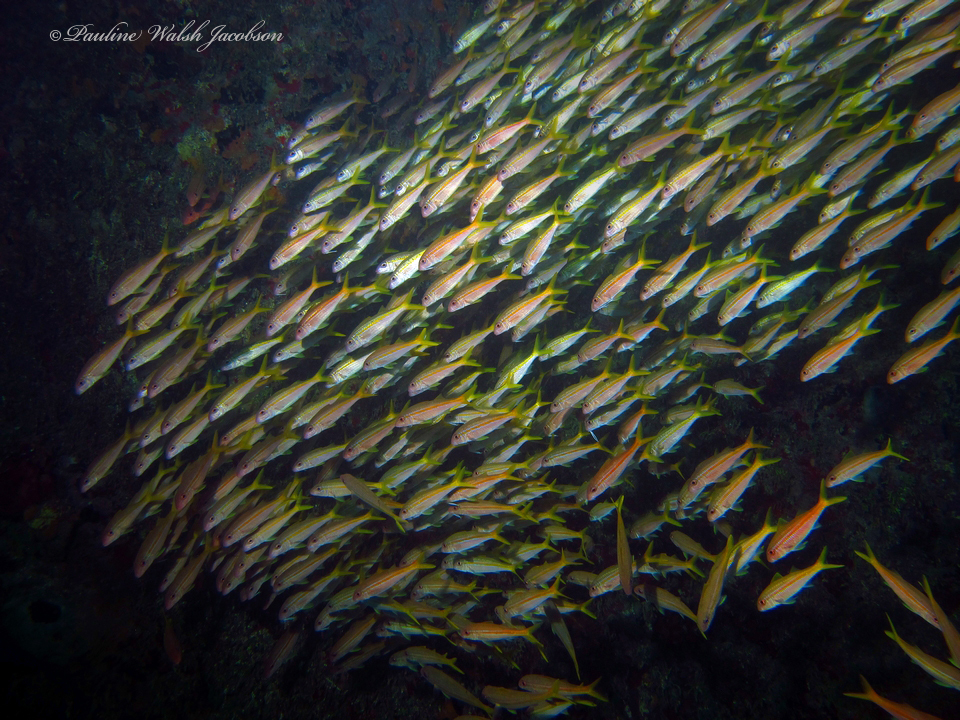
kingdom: Animalia
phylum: Chordata
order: Perciformes
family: Mullidae
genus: Mulloidichthys
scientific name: Mulloidichthys martinicus
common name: Yellow goatfish
